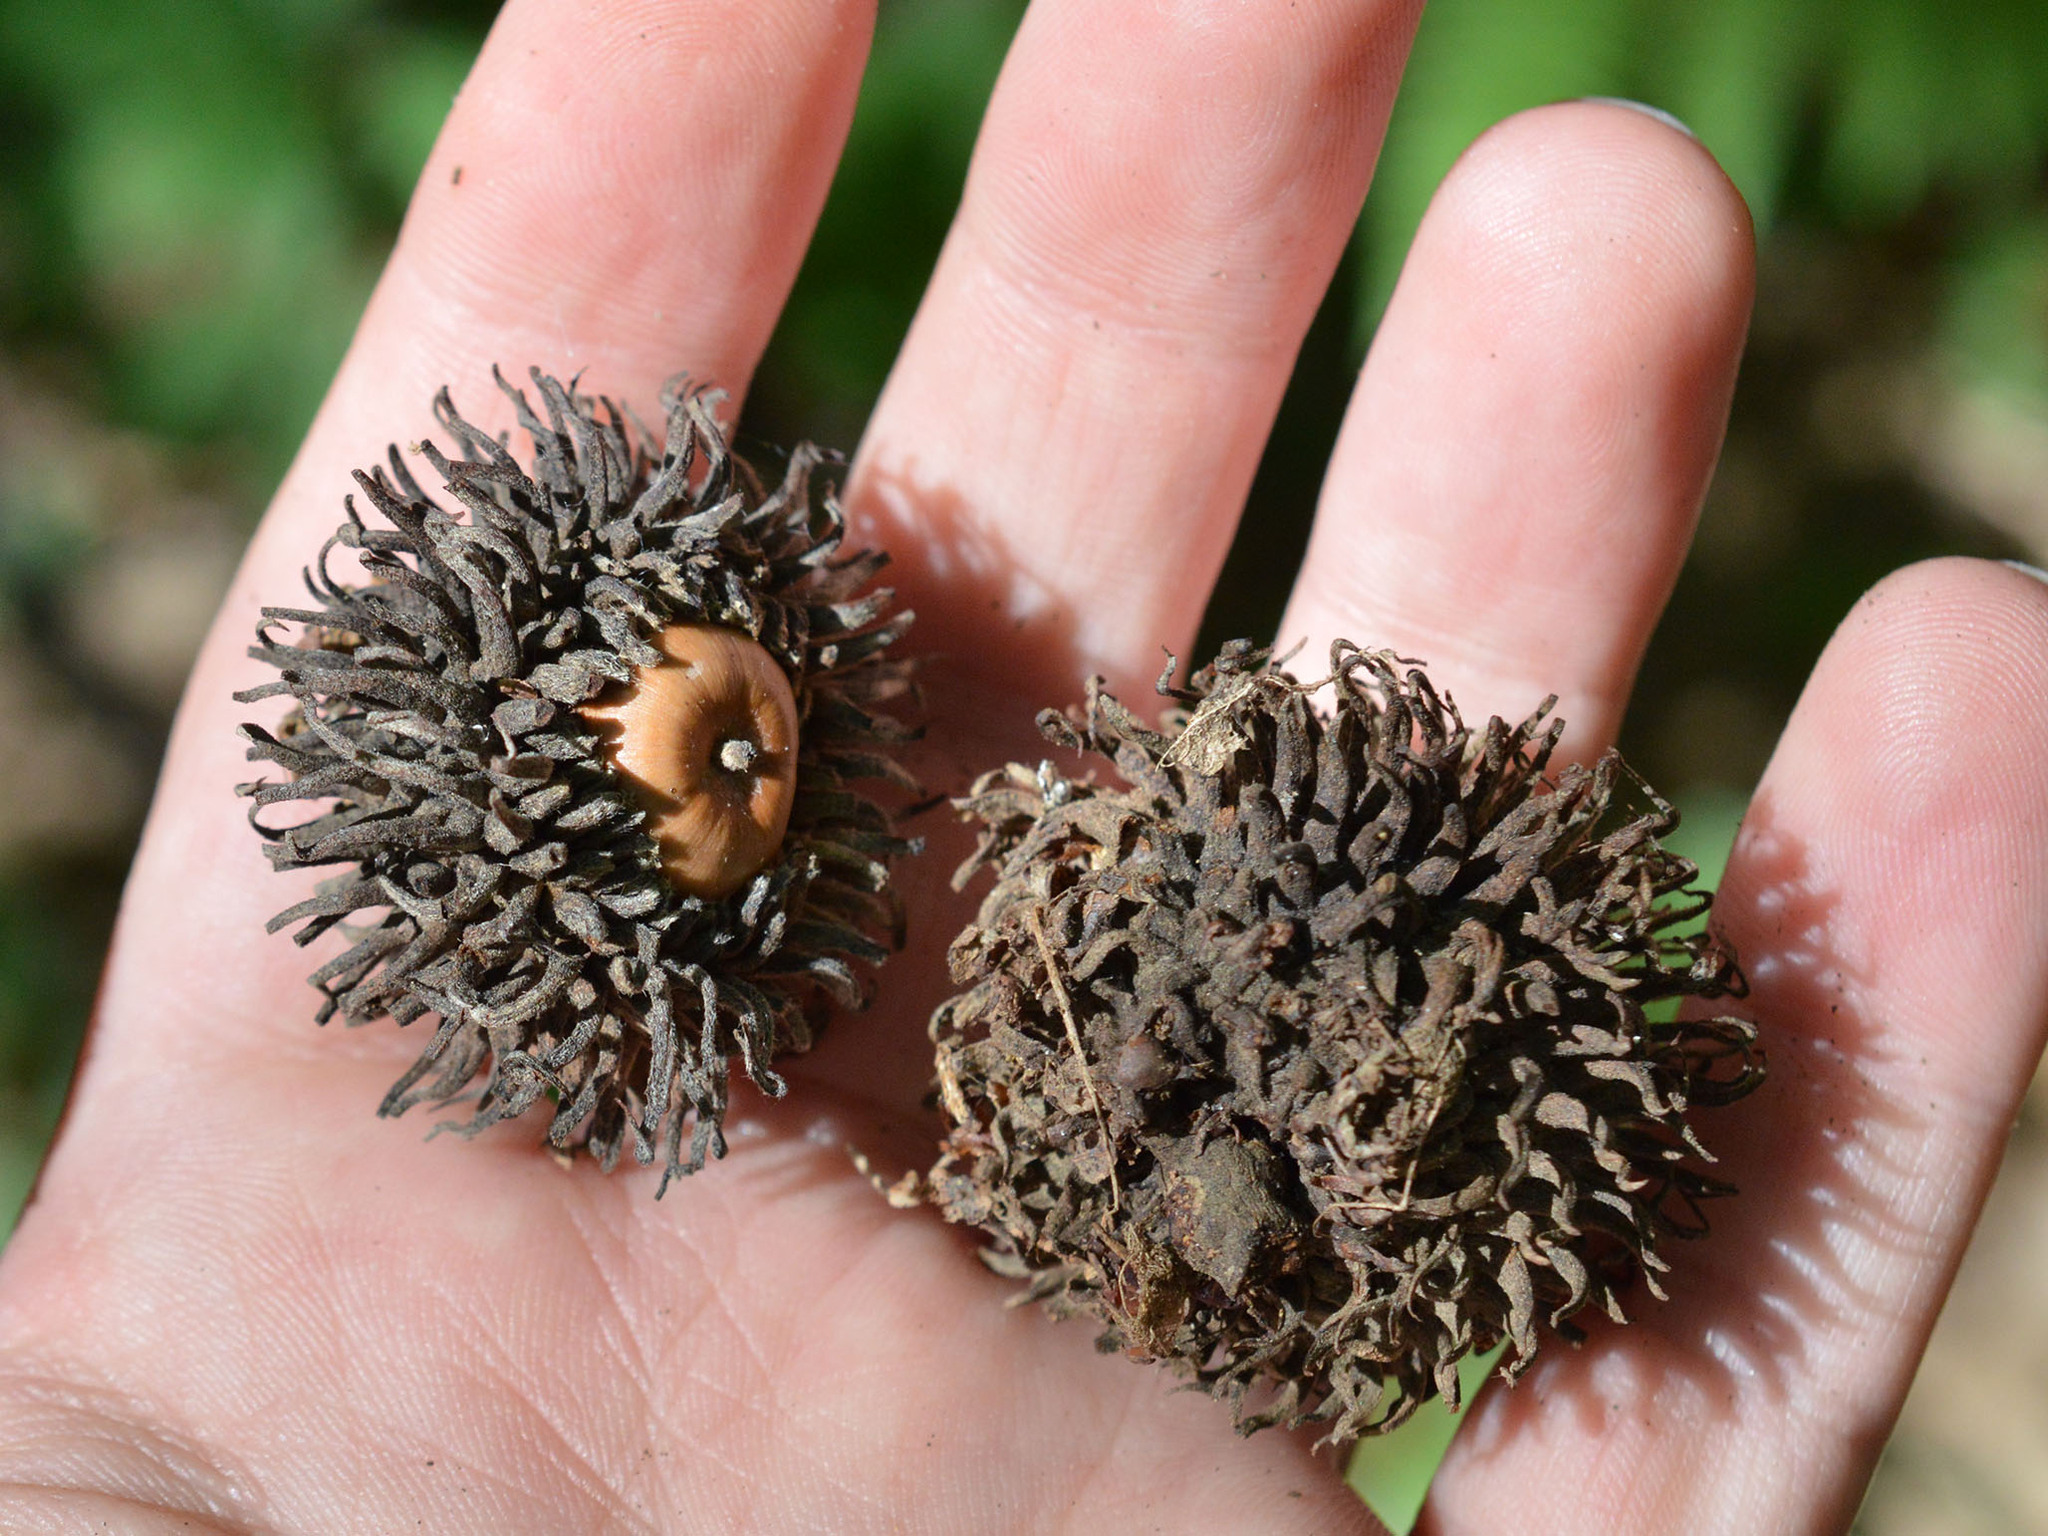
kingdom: Plantae
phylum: Tracheophyta
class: Magnoliopsida
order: Fagales
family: Fagaceae
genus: Quercus
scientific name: Quercus cerris
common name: Turkey oak
